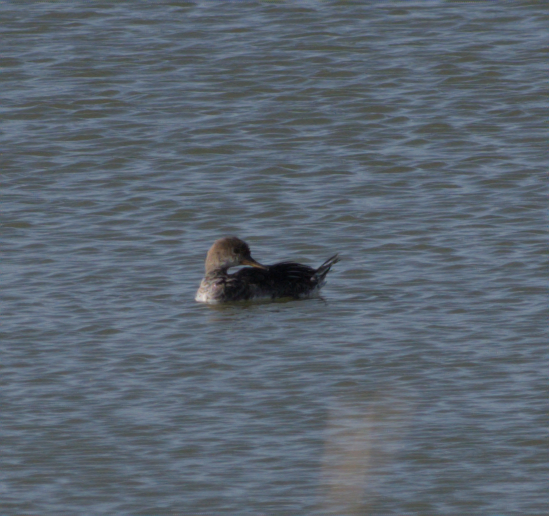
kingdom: Animalia
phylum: Chordata
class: Aves
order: Anseriformes
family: Anatidae
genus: Lophodytes
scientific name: Lophodytes cucullatus
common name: Hooded merganser
